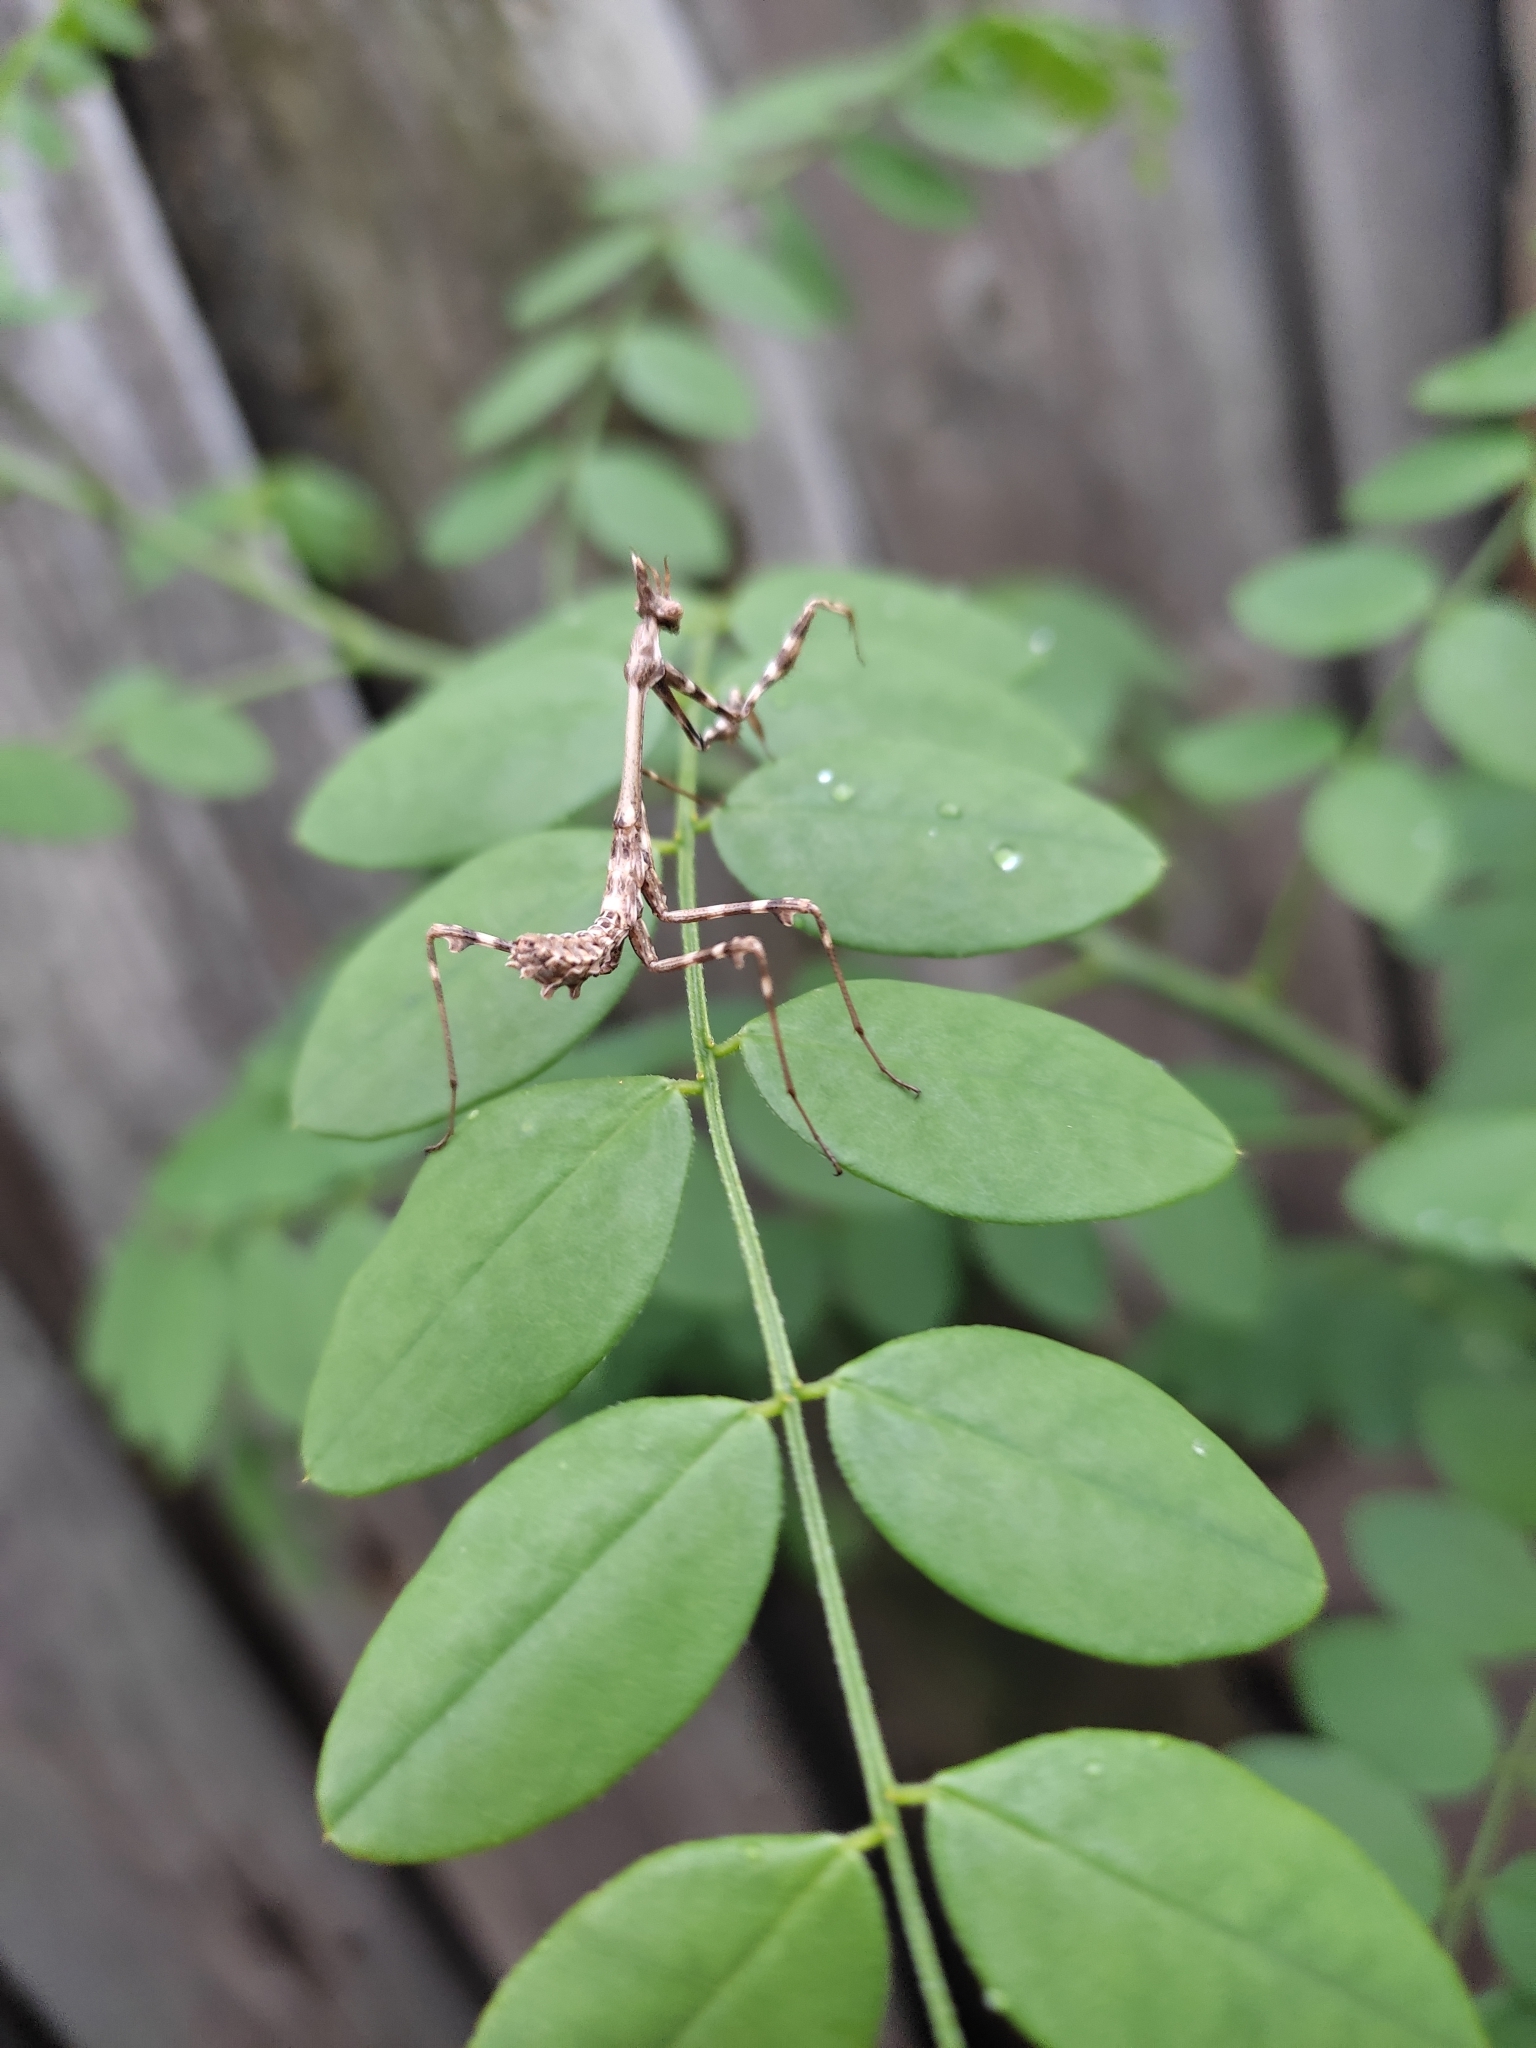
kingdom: Animalia
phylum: Arthropoda
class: Insecta
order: Mantodea
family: Empusidae
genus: Empusa
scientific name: Empusa pennicornis
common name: Conehead mantis
